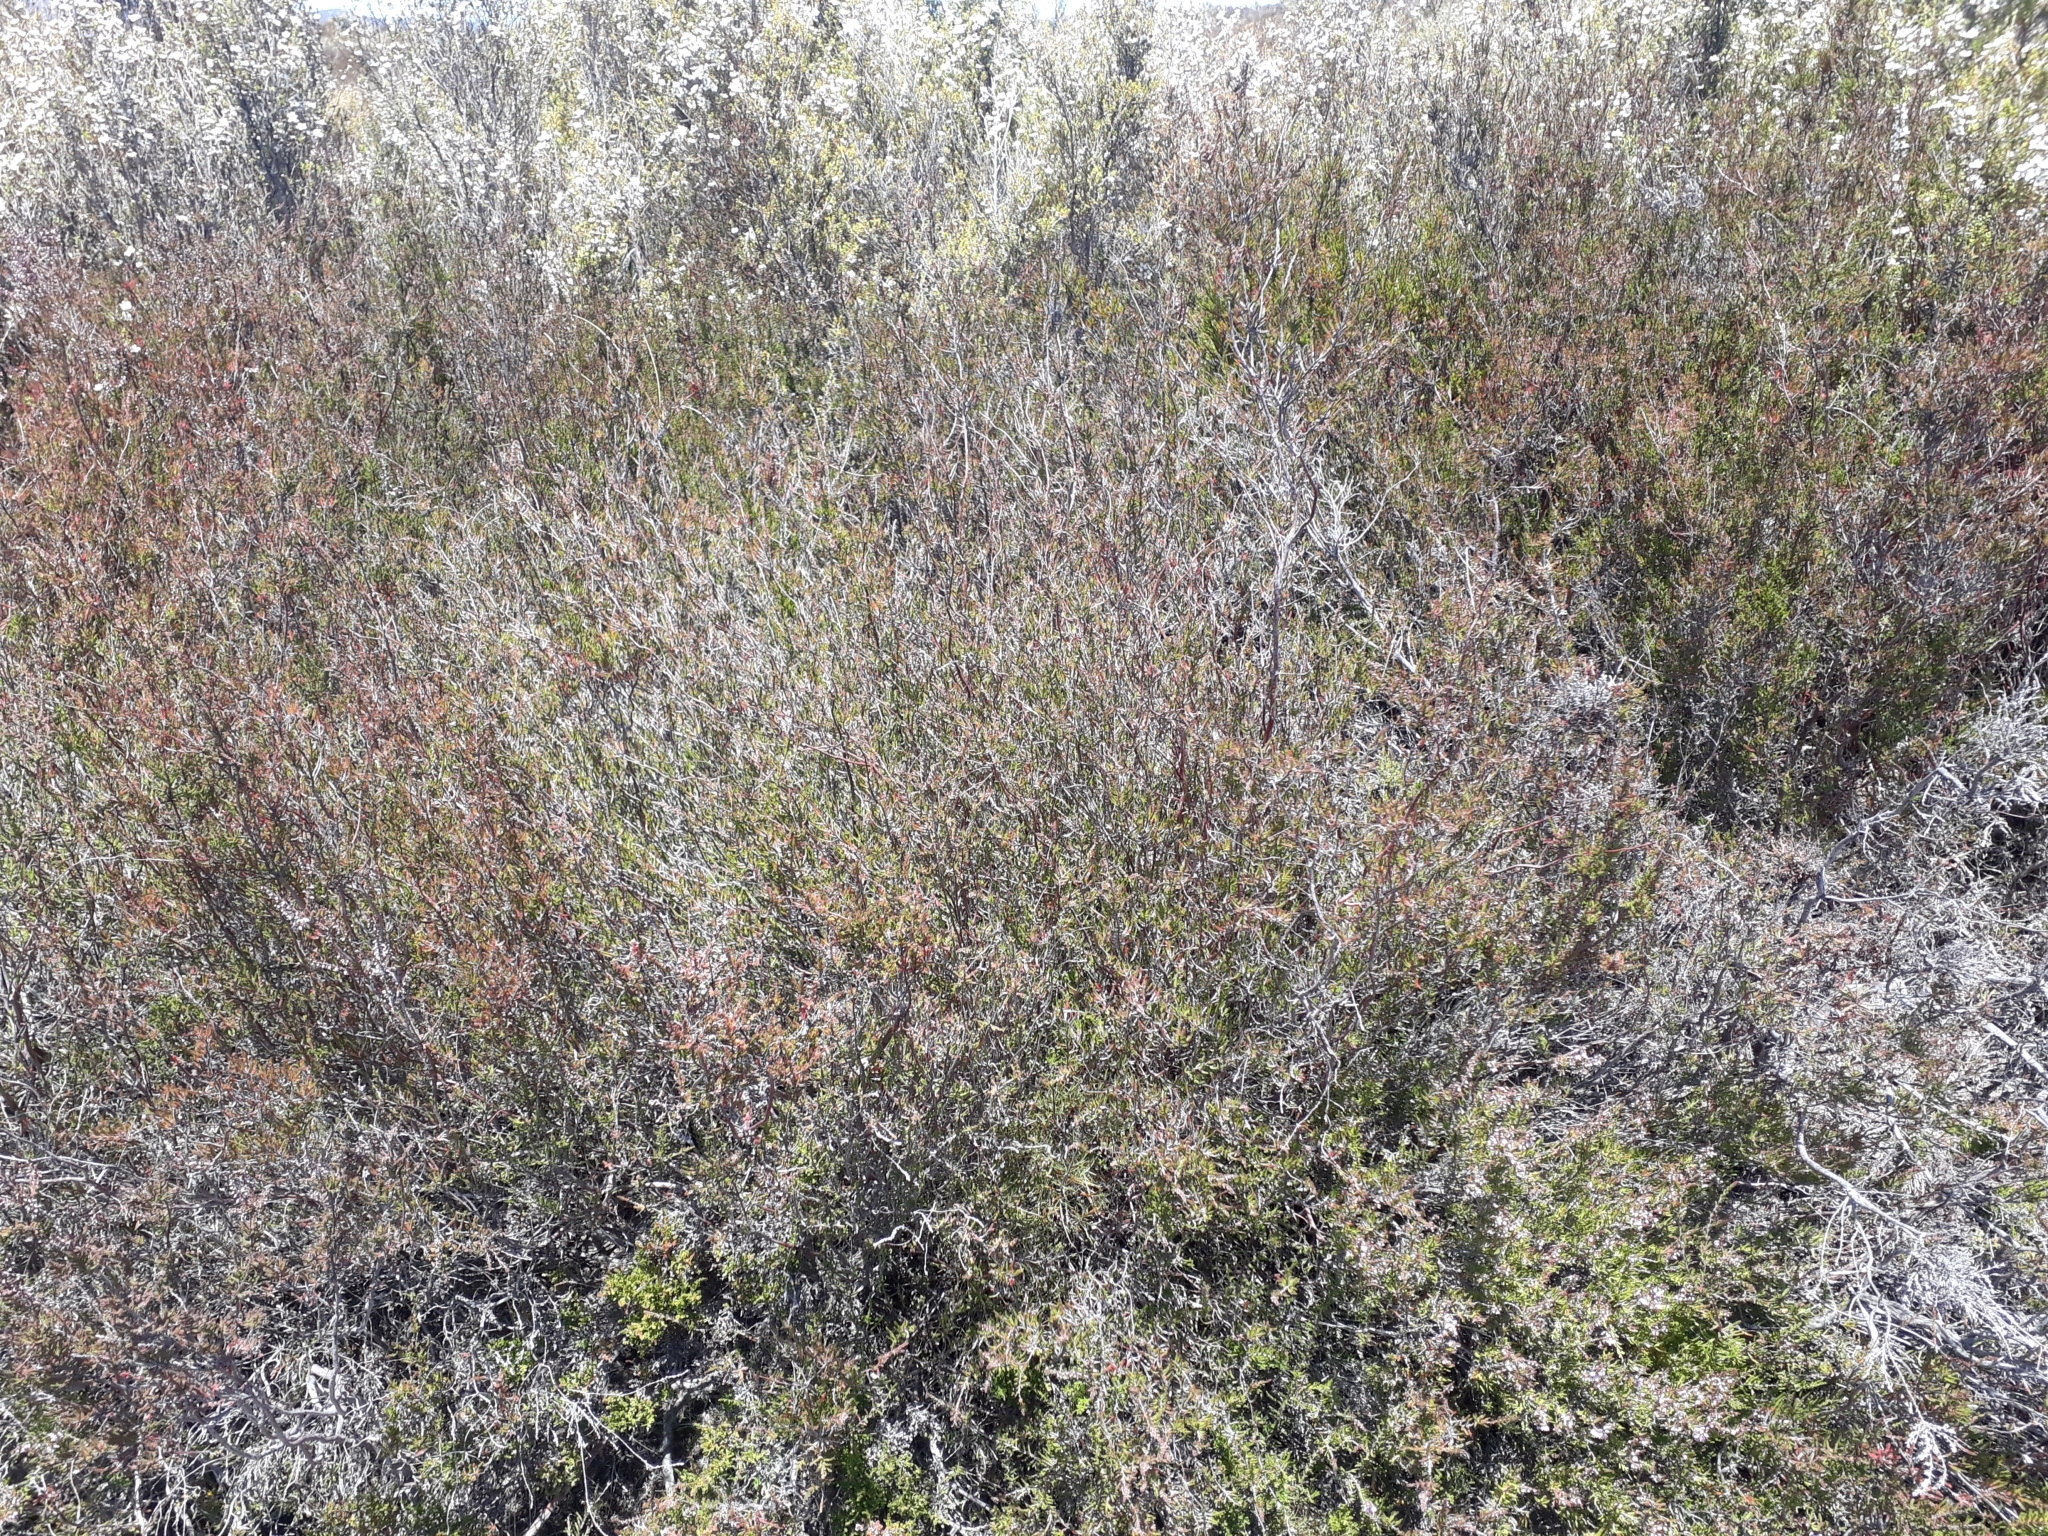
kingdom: Plantae
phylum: Tracheophyta
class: Magnoliopsida
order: Ericales
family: Ericaceae
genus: Calluna
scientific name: Calluna vulgaris
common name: Heather
